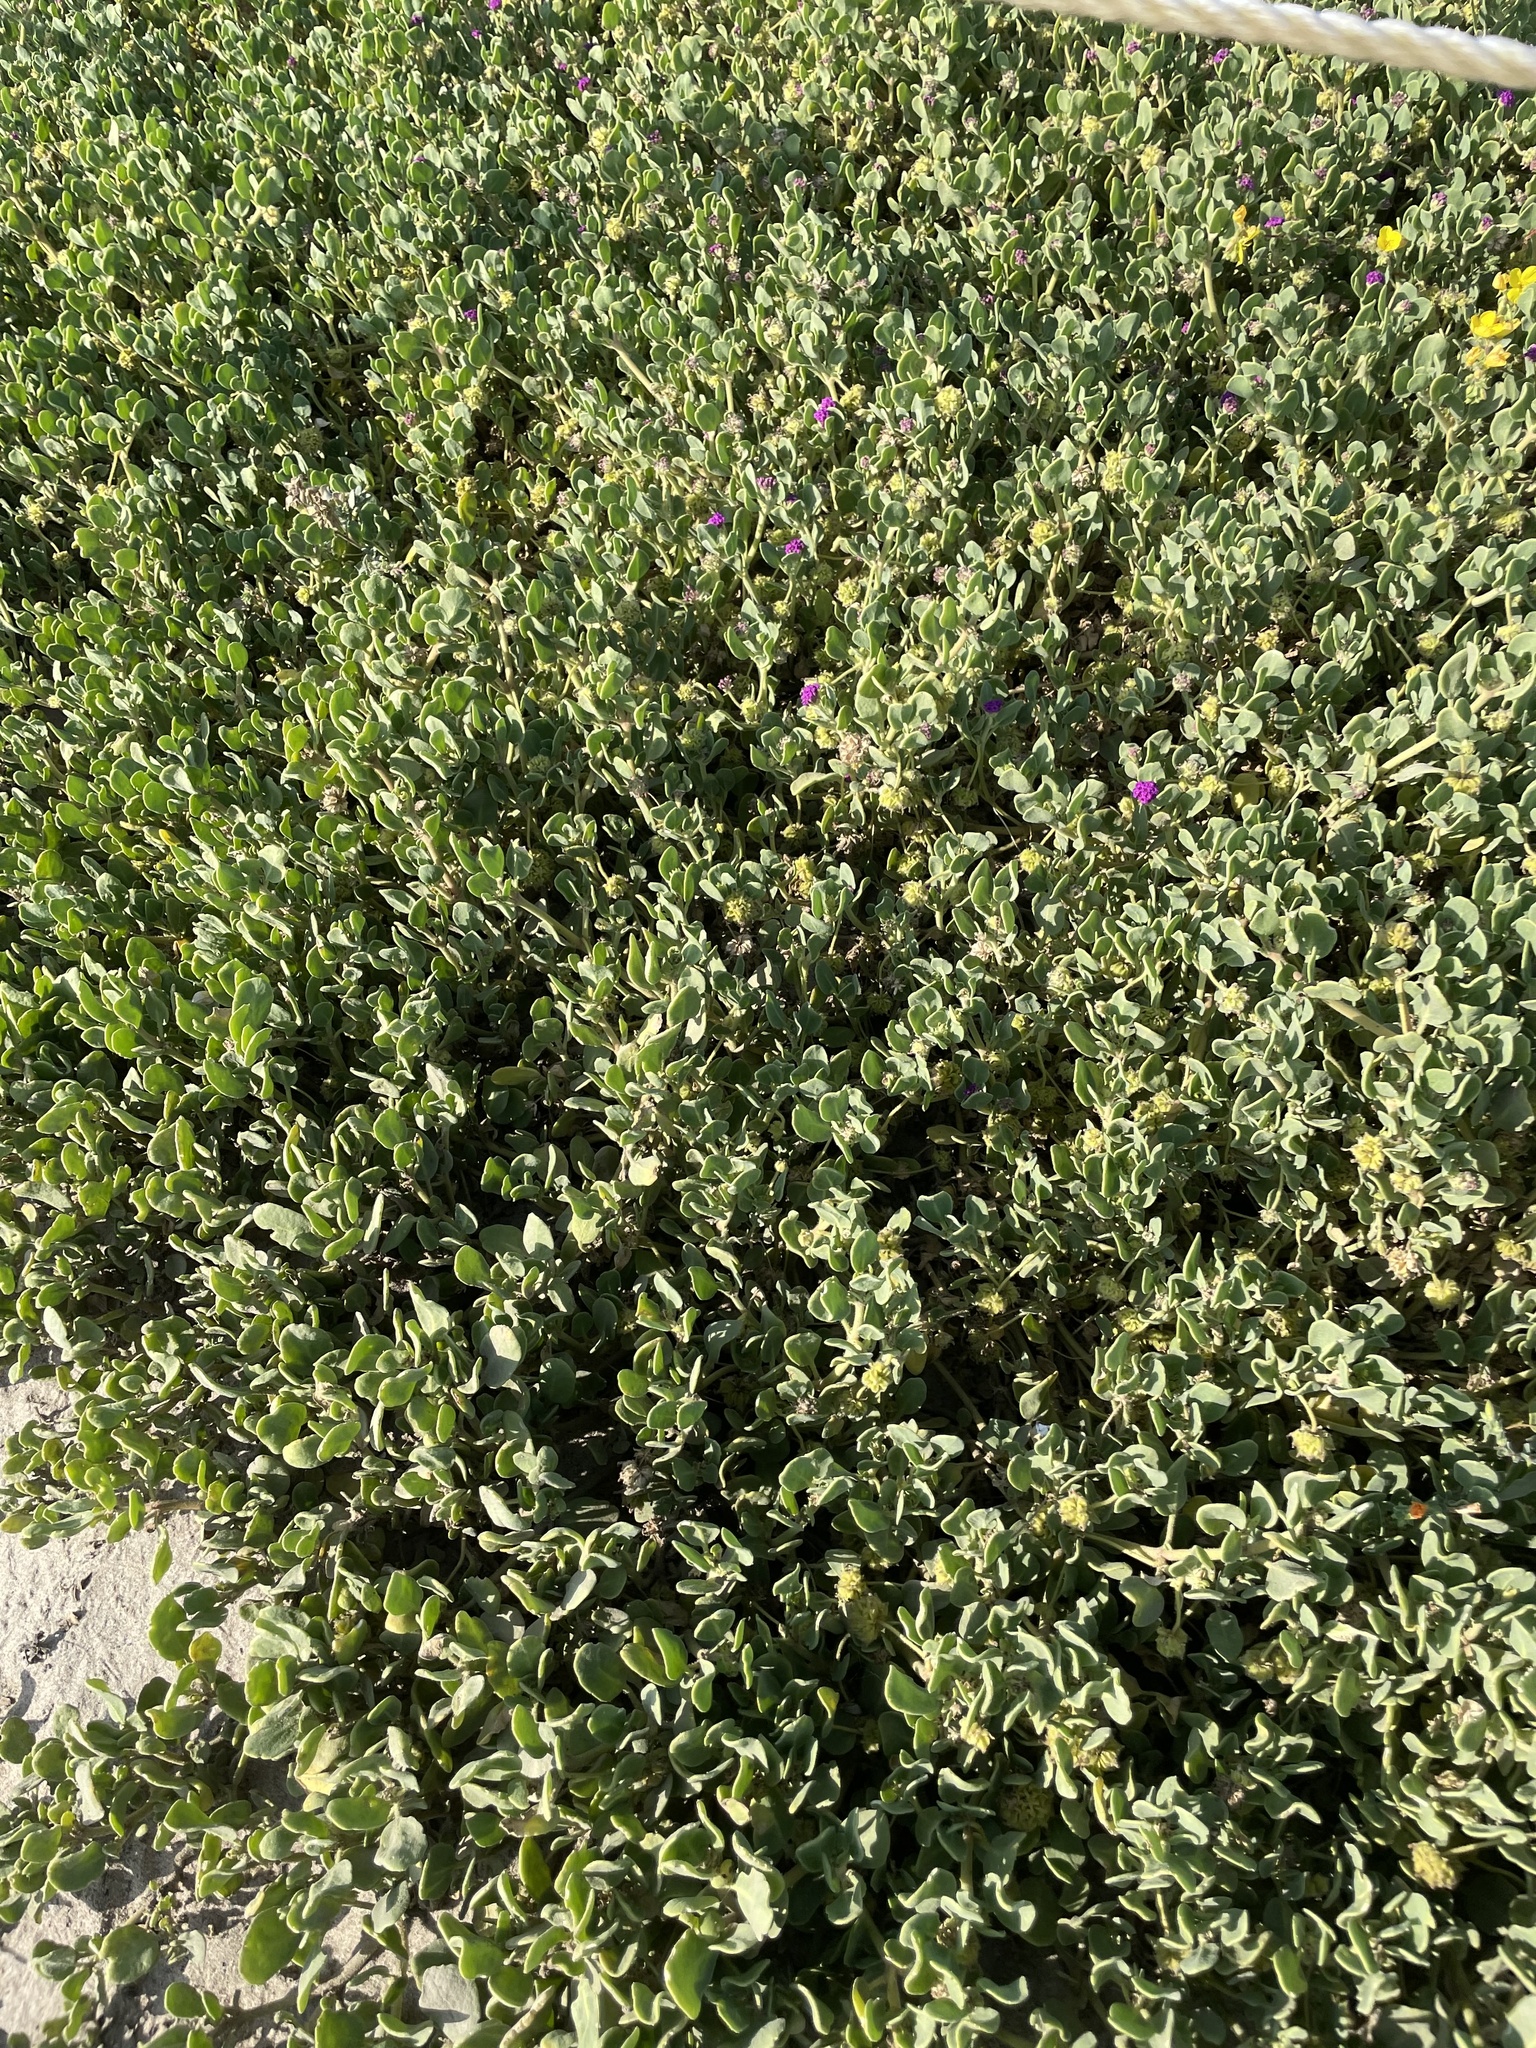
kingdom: Plantae
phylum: Tracheophyta
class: Magnoliopsida
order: Caryophyllales
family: Nyctaginaceae
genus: Abronia
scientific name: Abronia maritima
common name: Red sand-verbena
